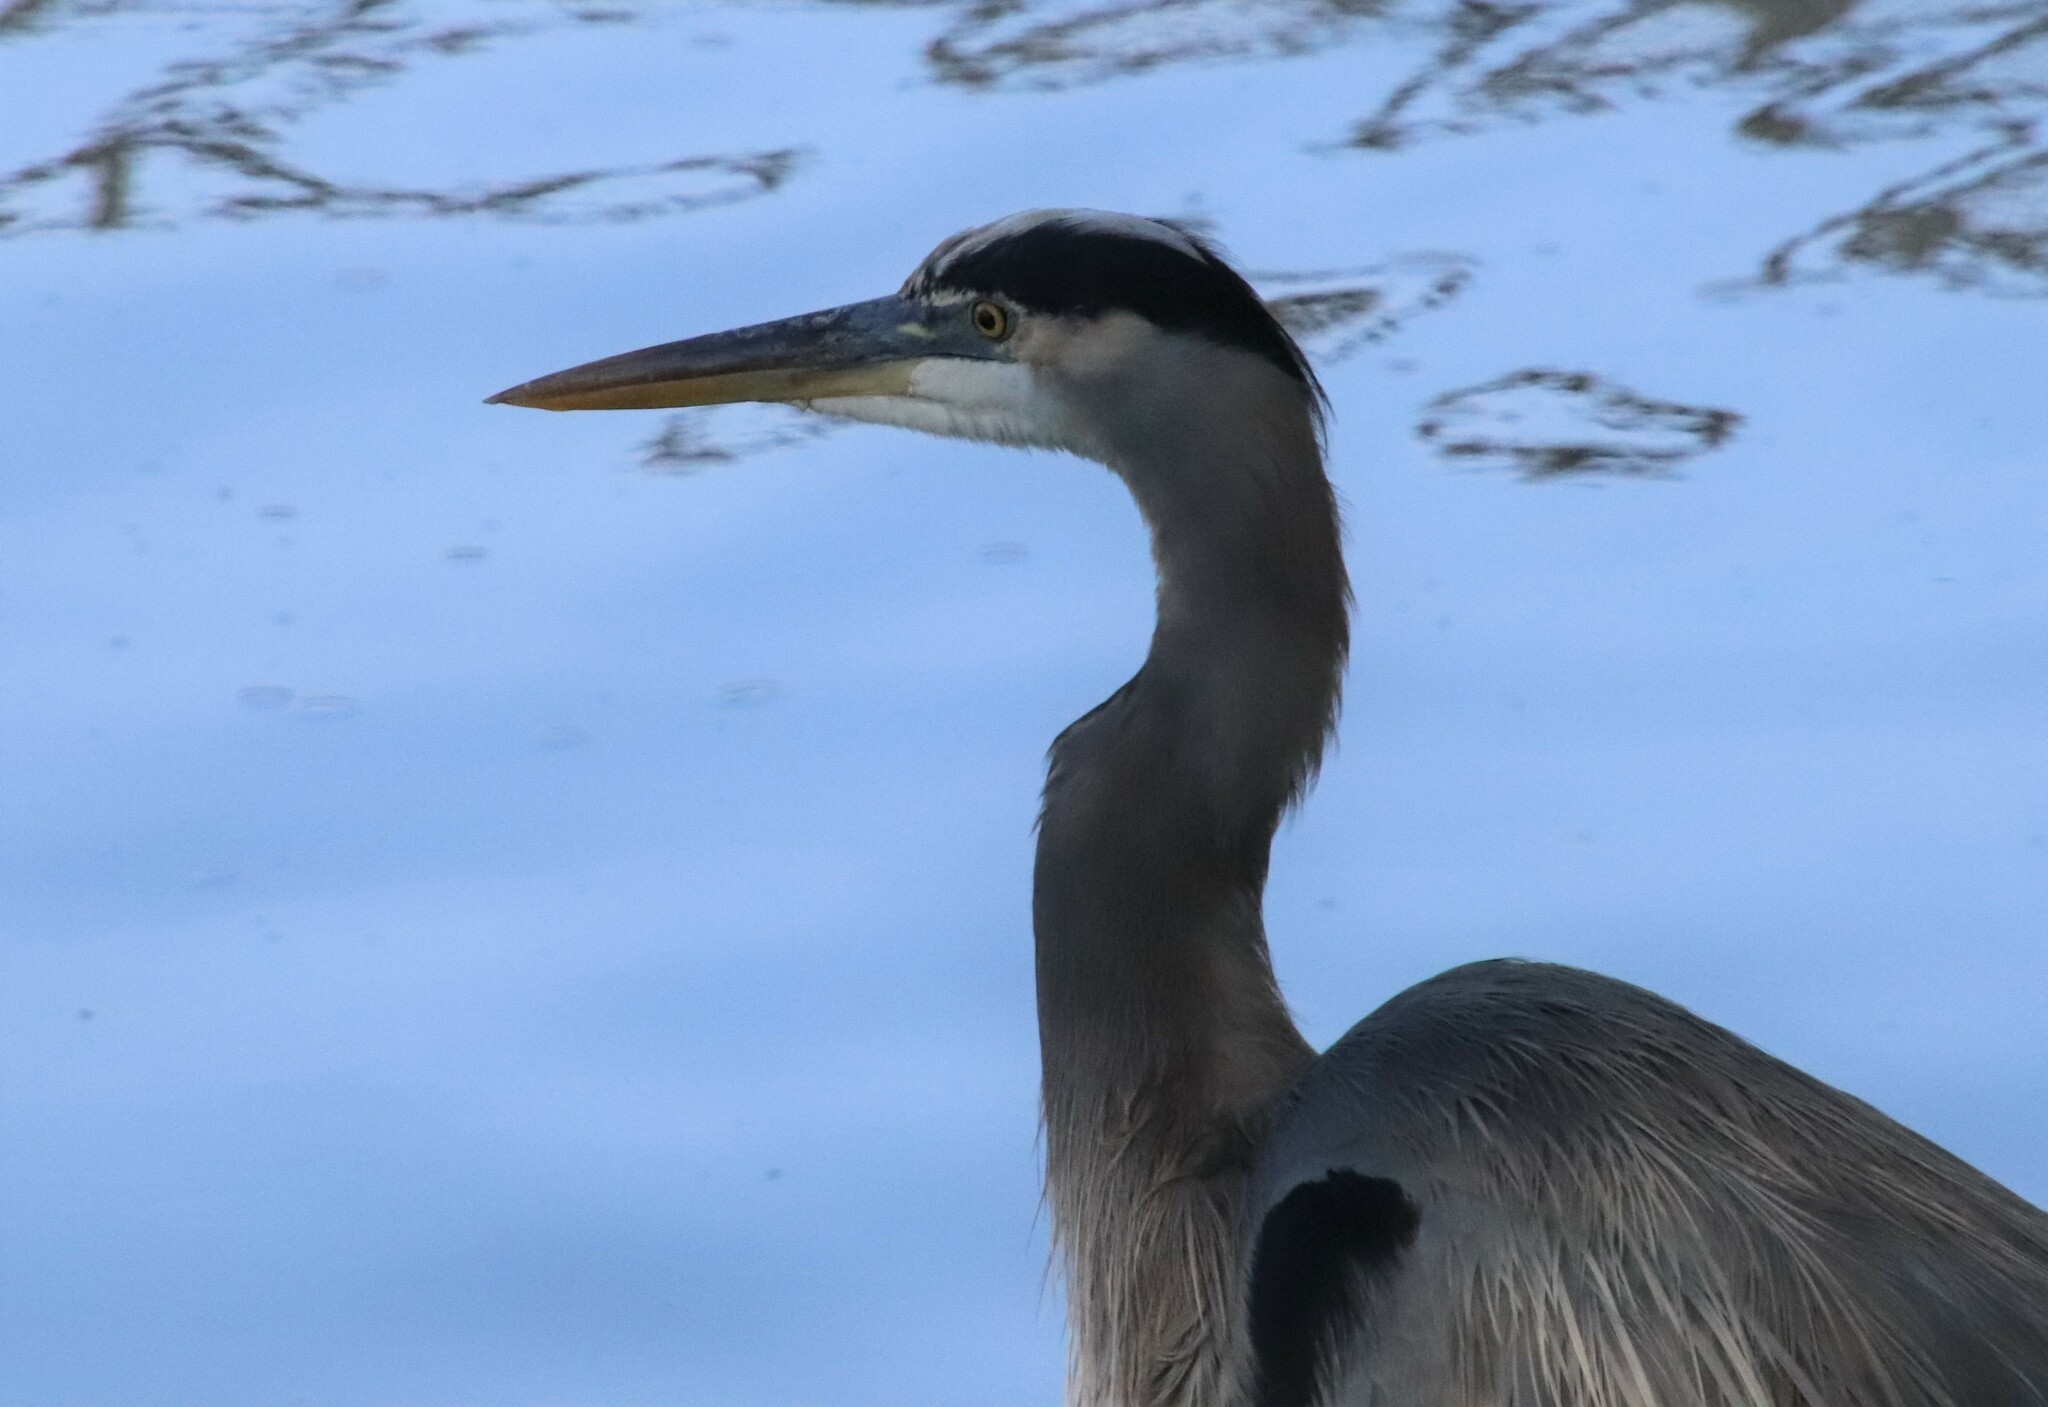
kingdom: Animalia
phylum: Chordata
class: Aves
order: Pelecaniformes
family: Ardeidae
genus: Ardea
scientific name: Ardea herodias
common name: Great blue heron
